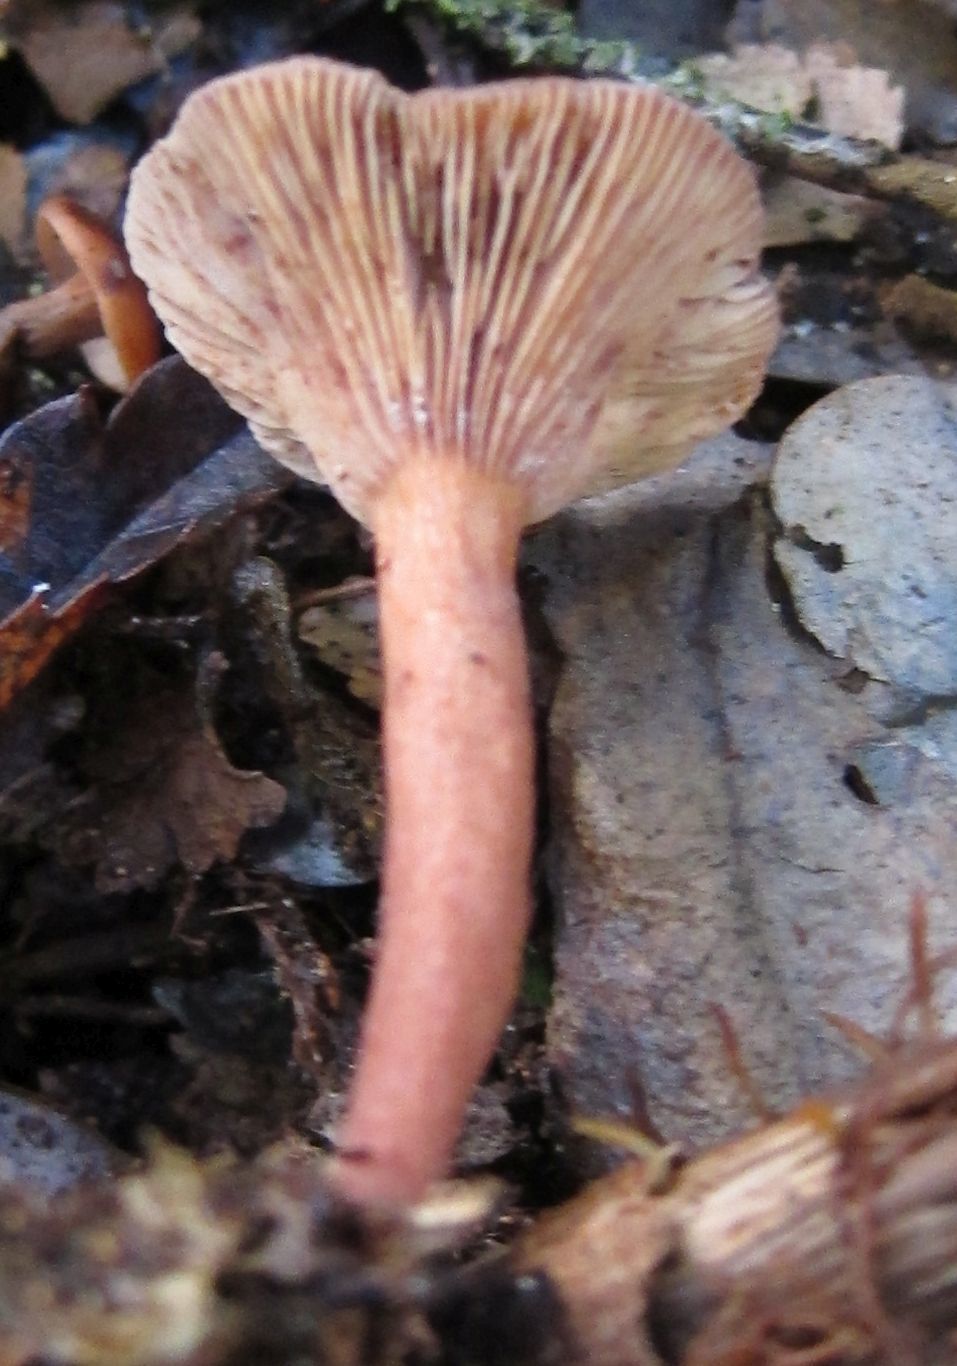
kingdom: Fungi
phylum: Basidiomycota
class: Agaricomycetes
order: Russulales
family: Russulaceae
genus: Lactarius
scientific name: Lactarius umerensis
